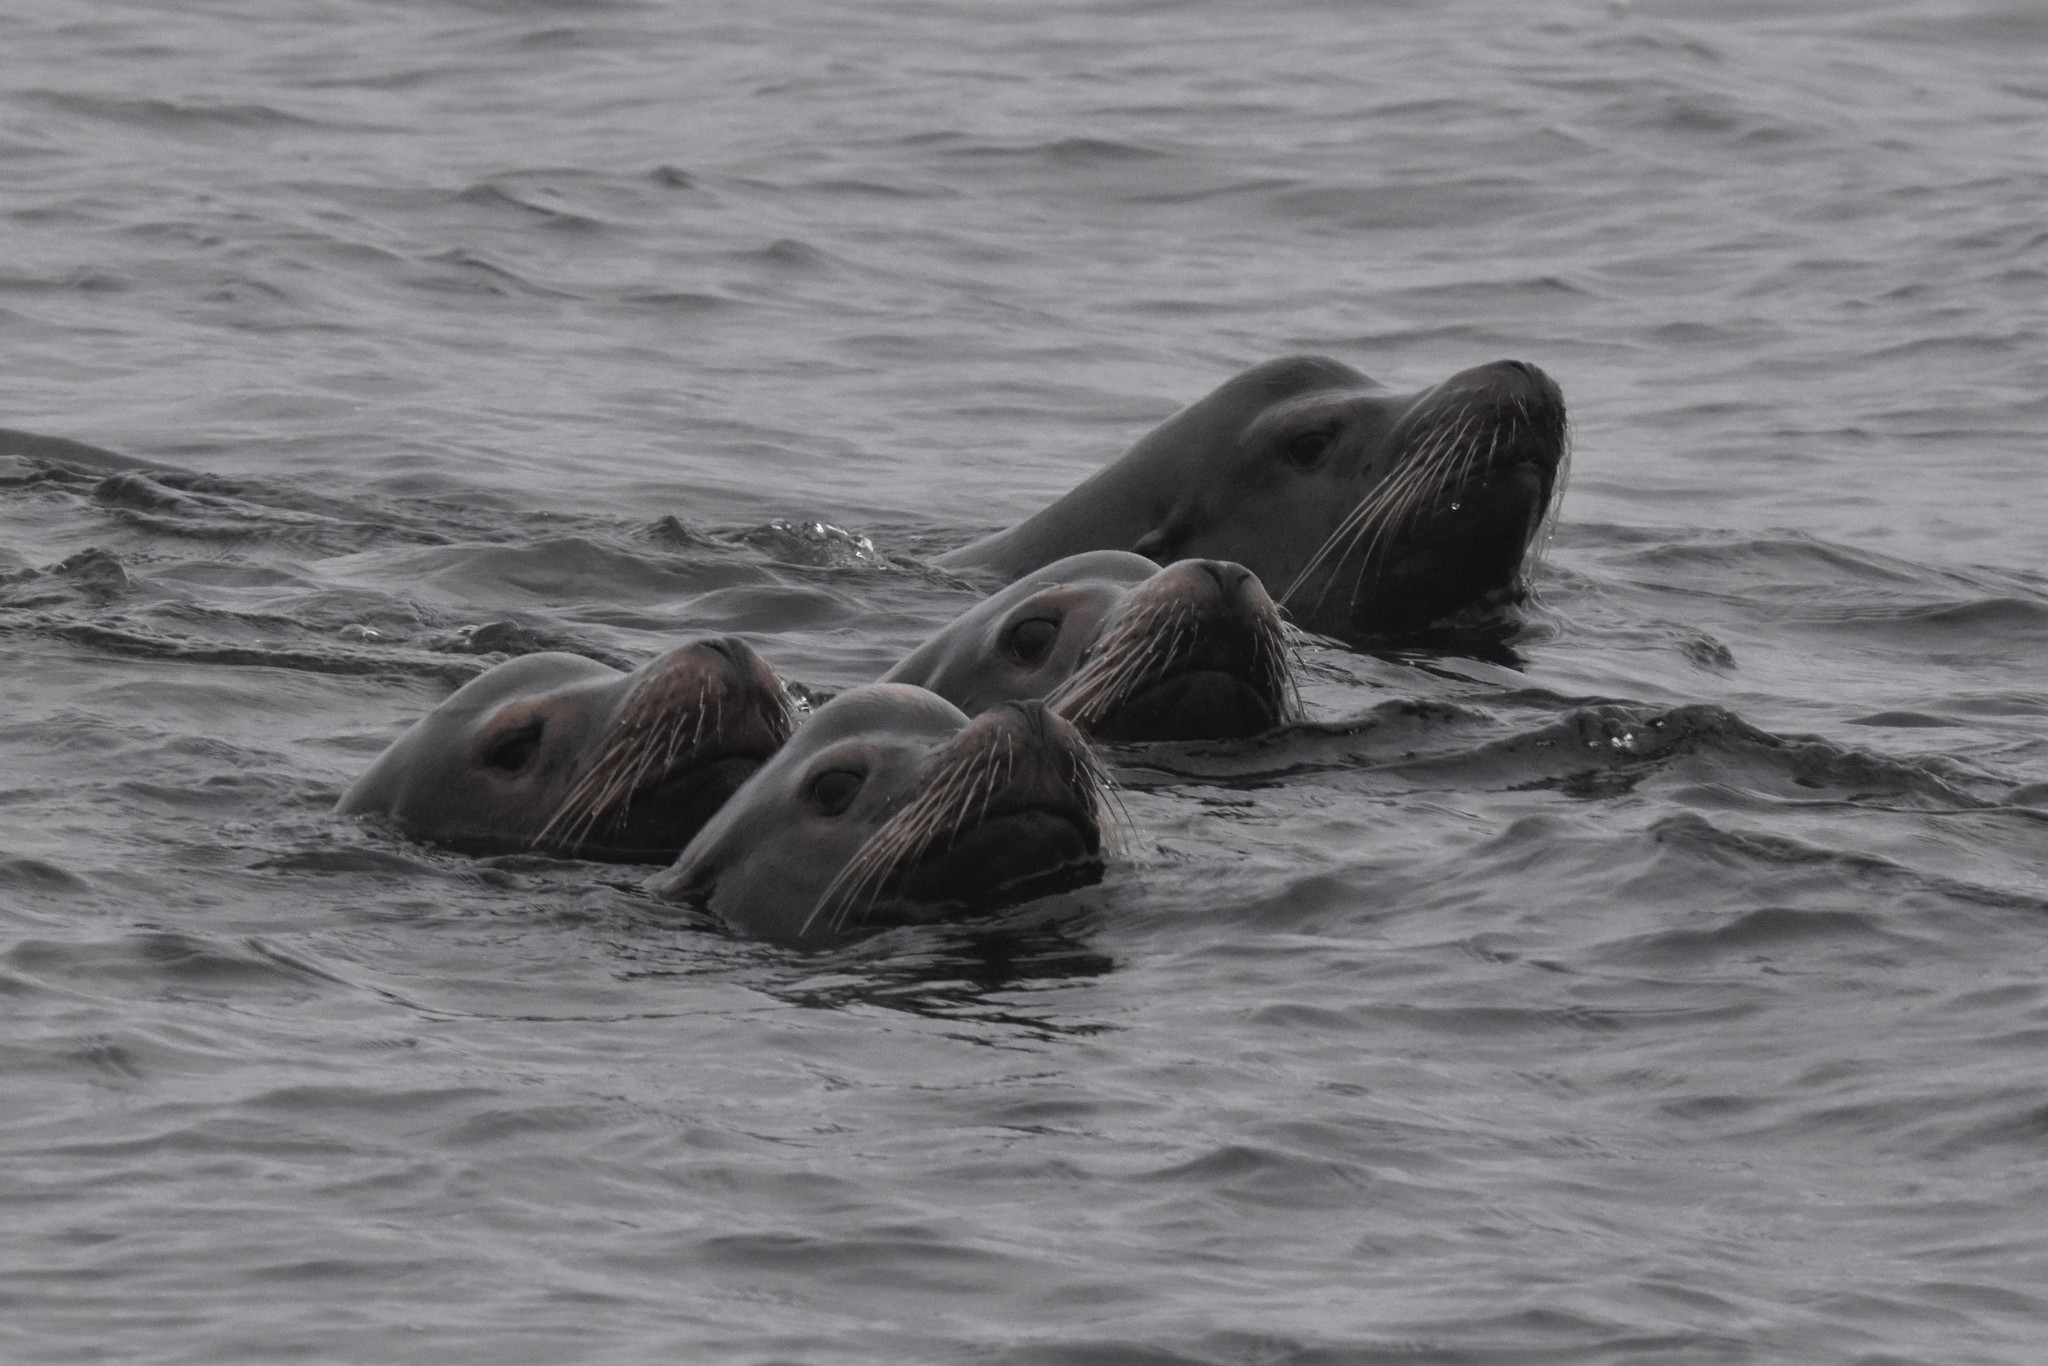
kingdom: Animalia
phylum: Chordata
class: Mammalia
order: Carnivora
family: Otariidae
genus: Zalophus
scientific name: Zalophus californianus
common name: California sea lion
